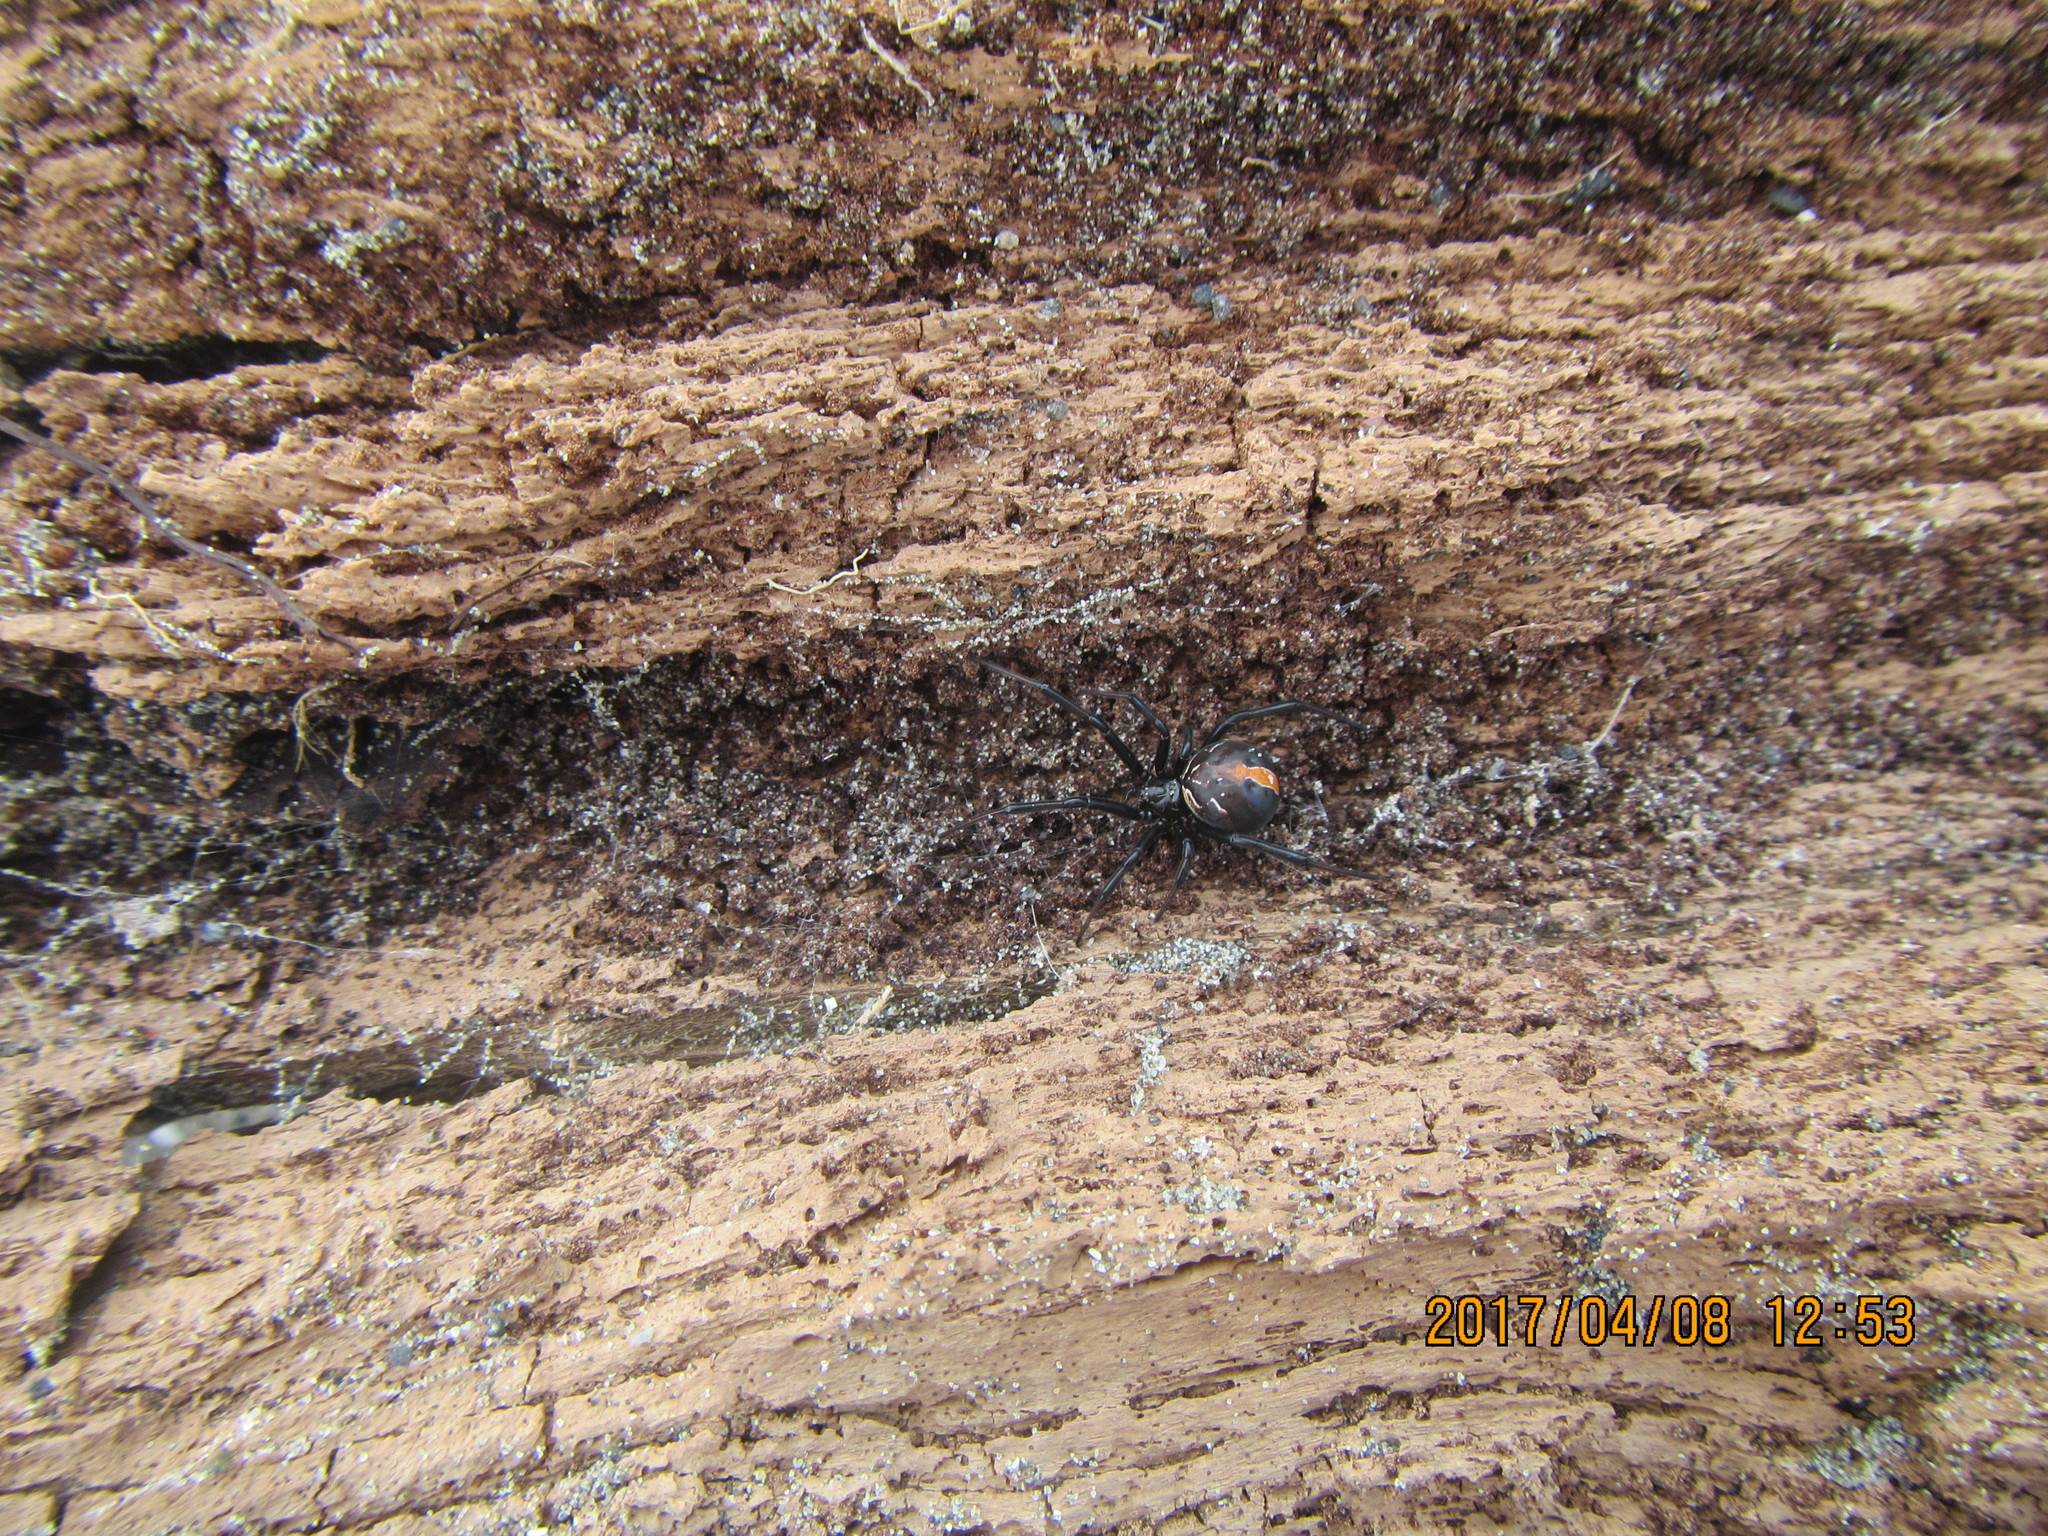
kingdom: Animalia
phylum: Arthropoda
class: Arachnida
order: Araneae
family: Theridiidae
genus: Latrodectus
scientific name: Latrodectus katipo
